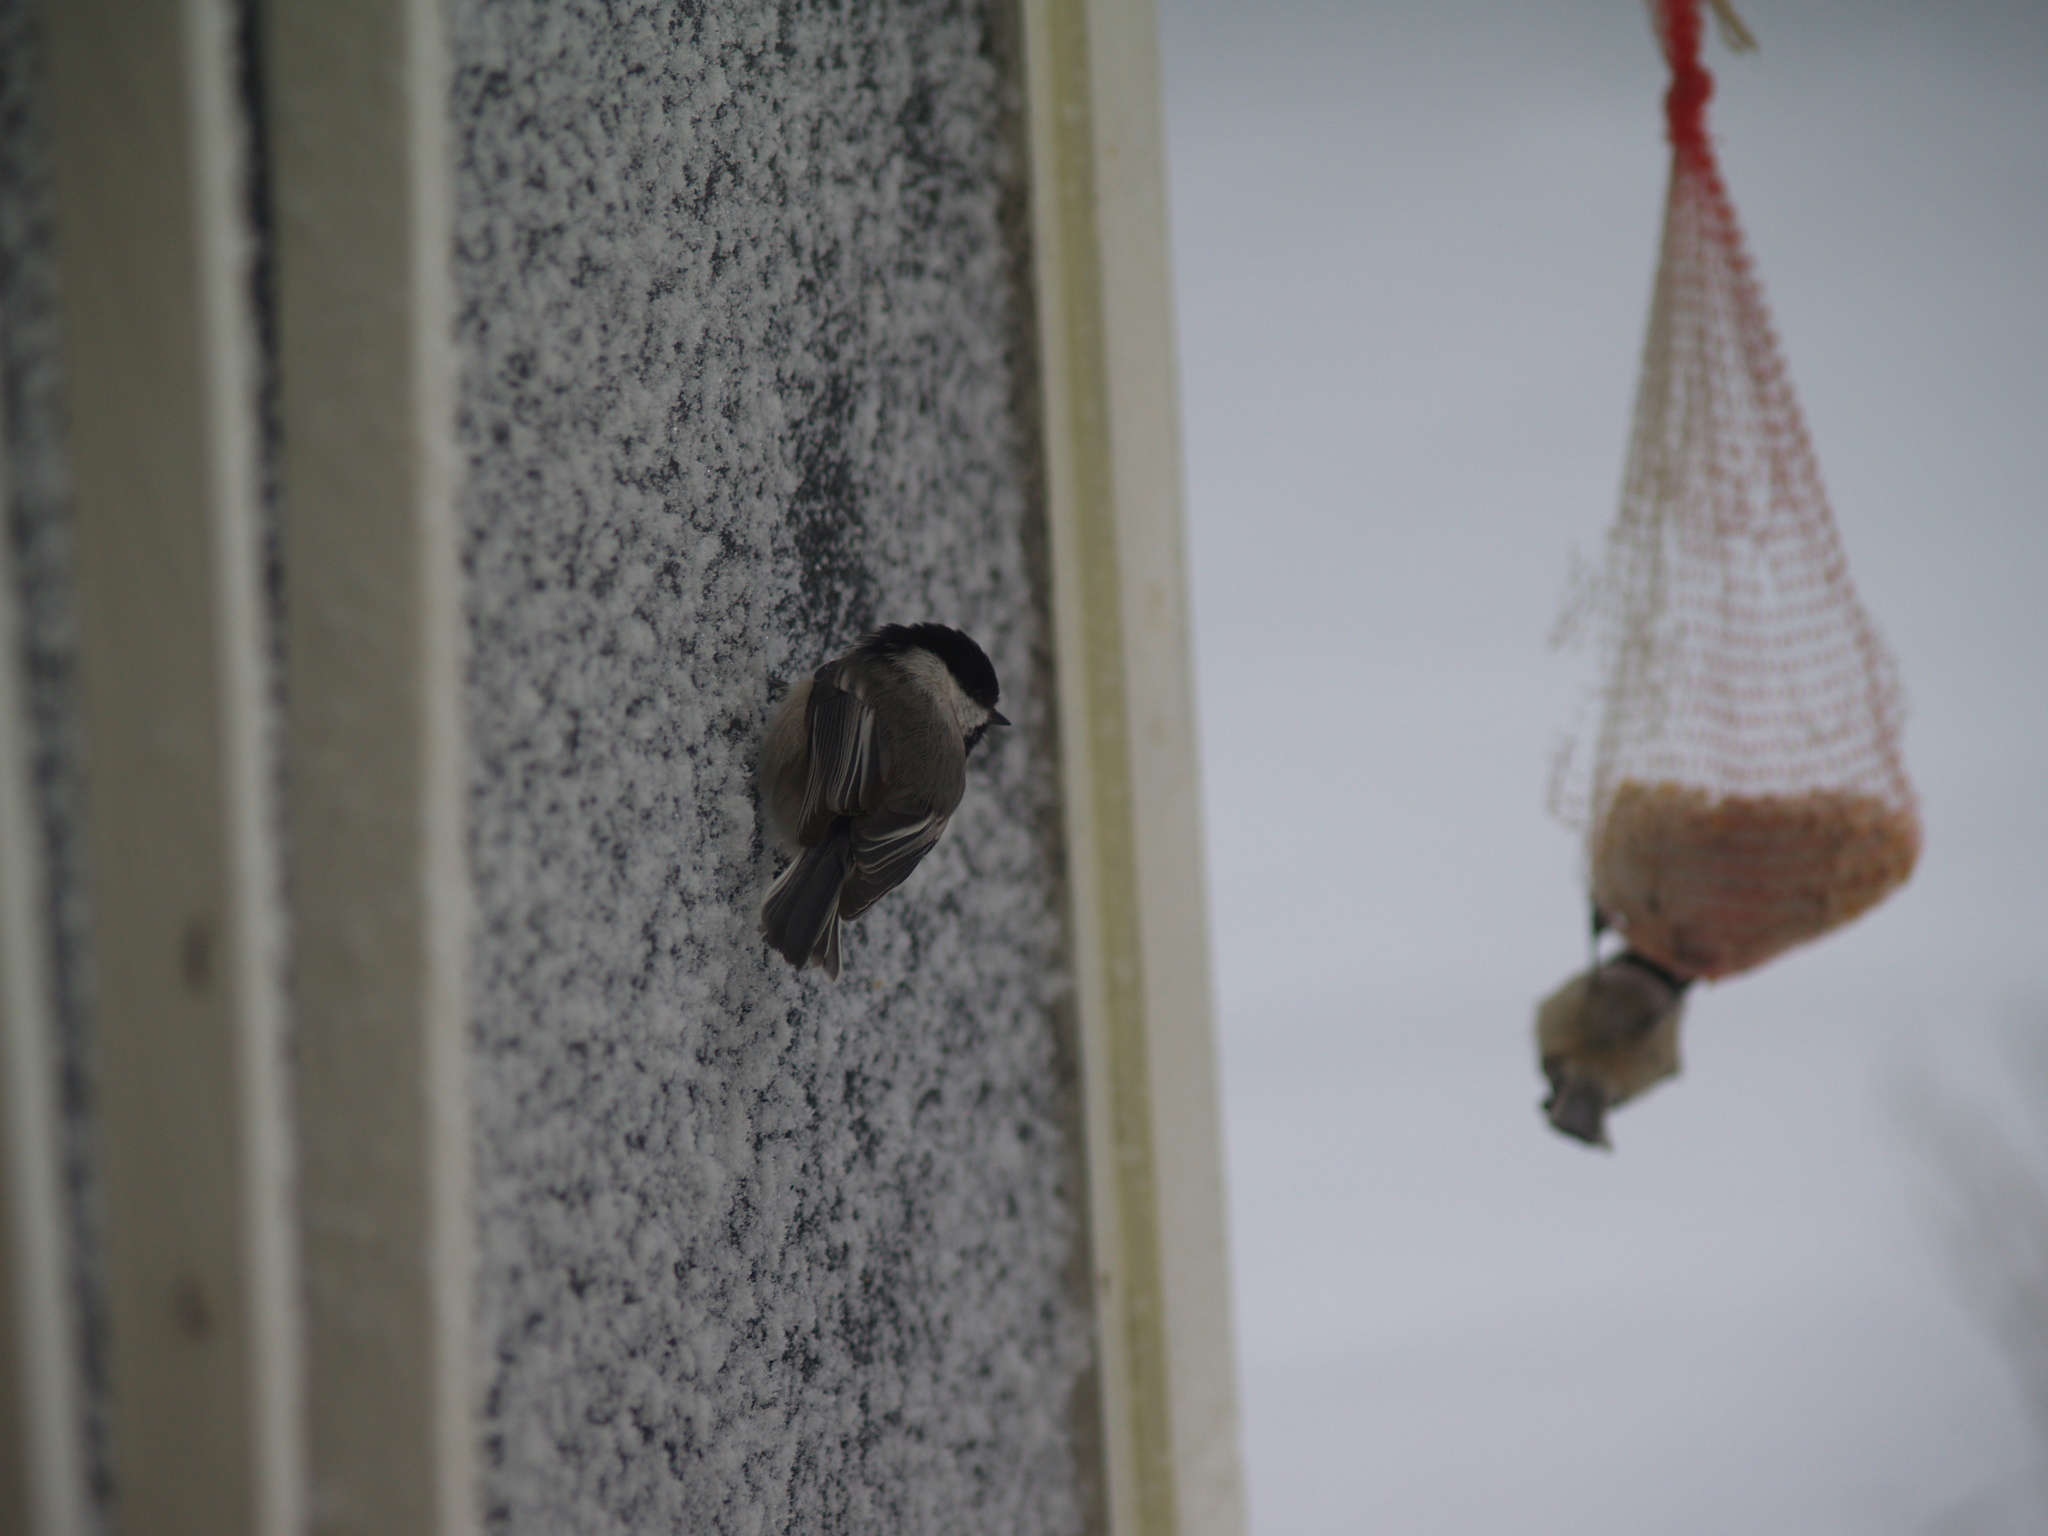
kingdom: Animalia
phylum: Chordata
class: Aves
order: Passeriformes
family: Paridae
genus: Poecile
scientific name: Poecile atricapillus
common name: Black-capped chickadee
